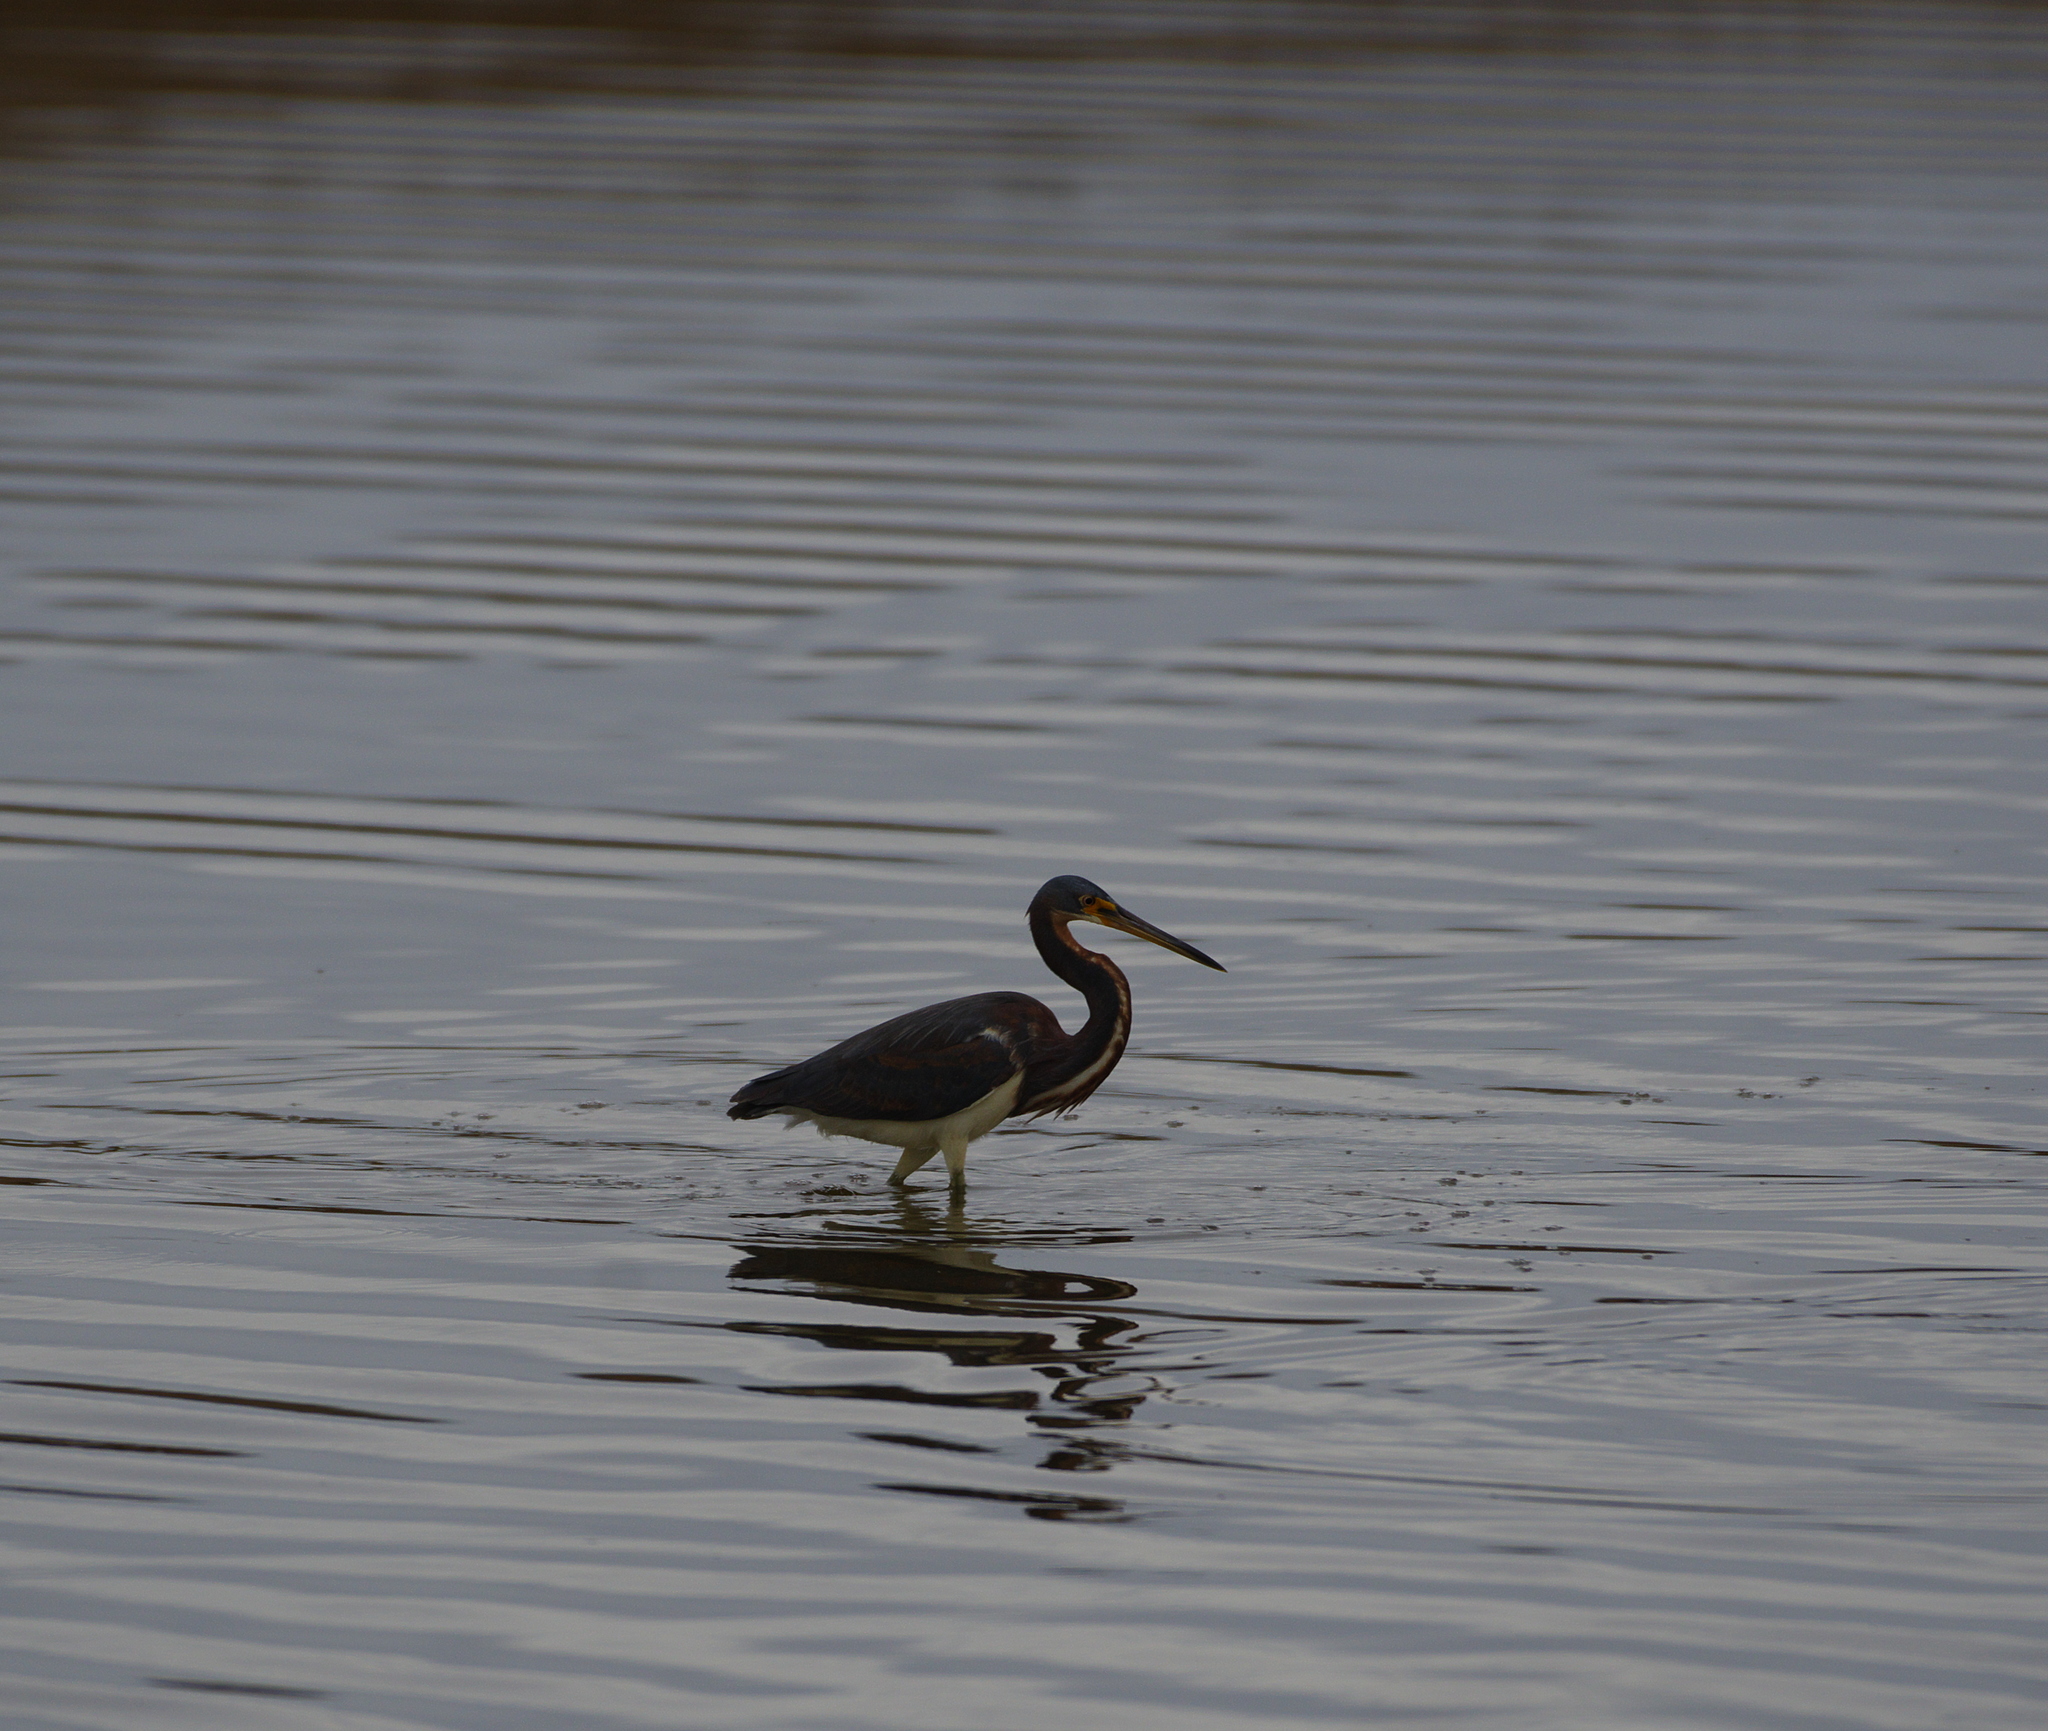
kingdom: Animalia
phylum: Chordata
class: Aves
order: Pelecaniformes
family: Ardeidae
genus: Egretta
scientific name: Egretta tricolor
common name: Tricolored heron
